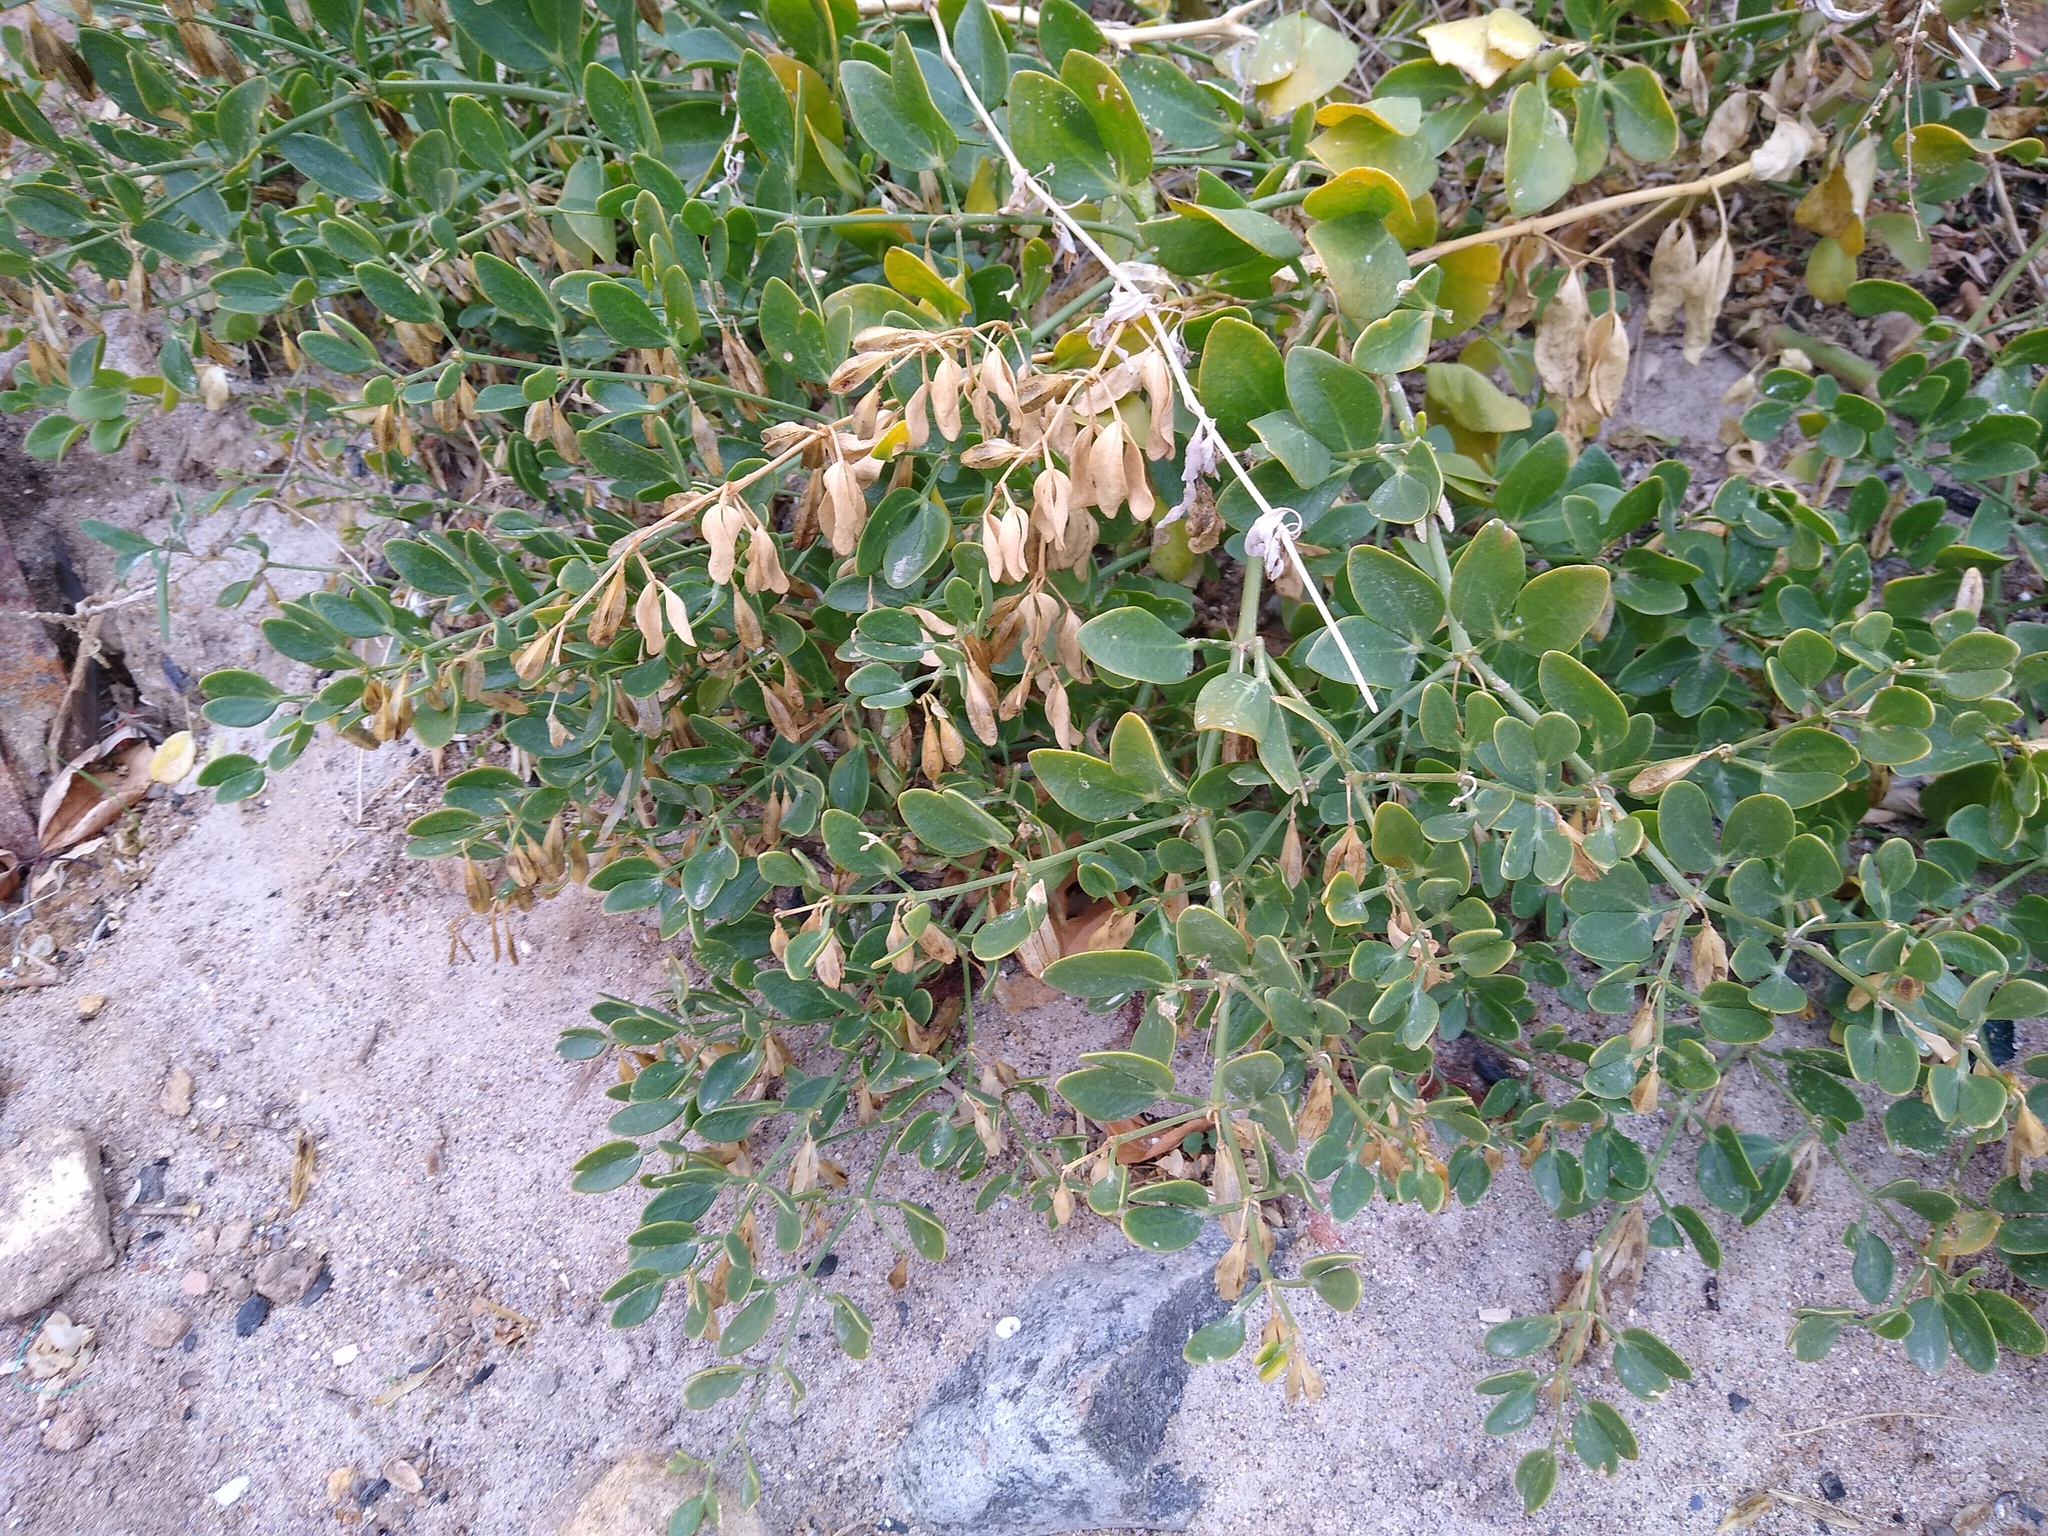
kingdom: Plantae
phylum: Tracheophyta
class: Magnoliopsida
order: Zygophyllales
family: Zygophyllaceae
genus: Zygophyllum
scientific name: Zygophyllum fabago
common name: Syrian beancaper
